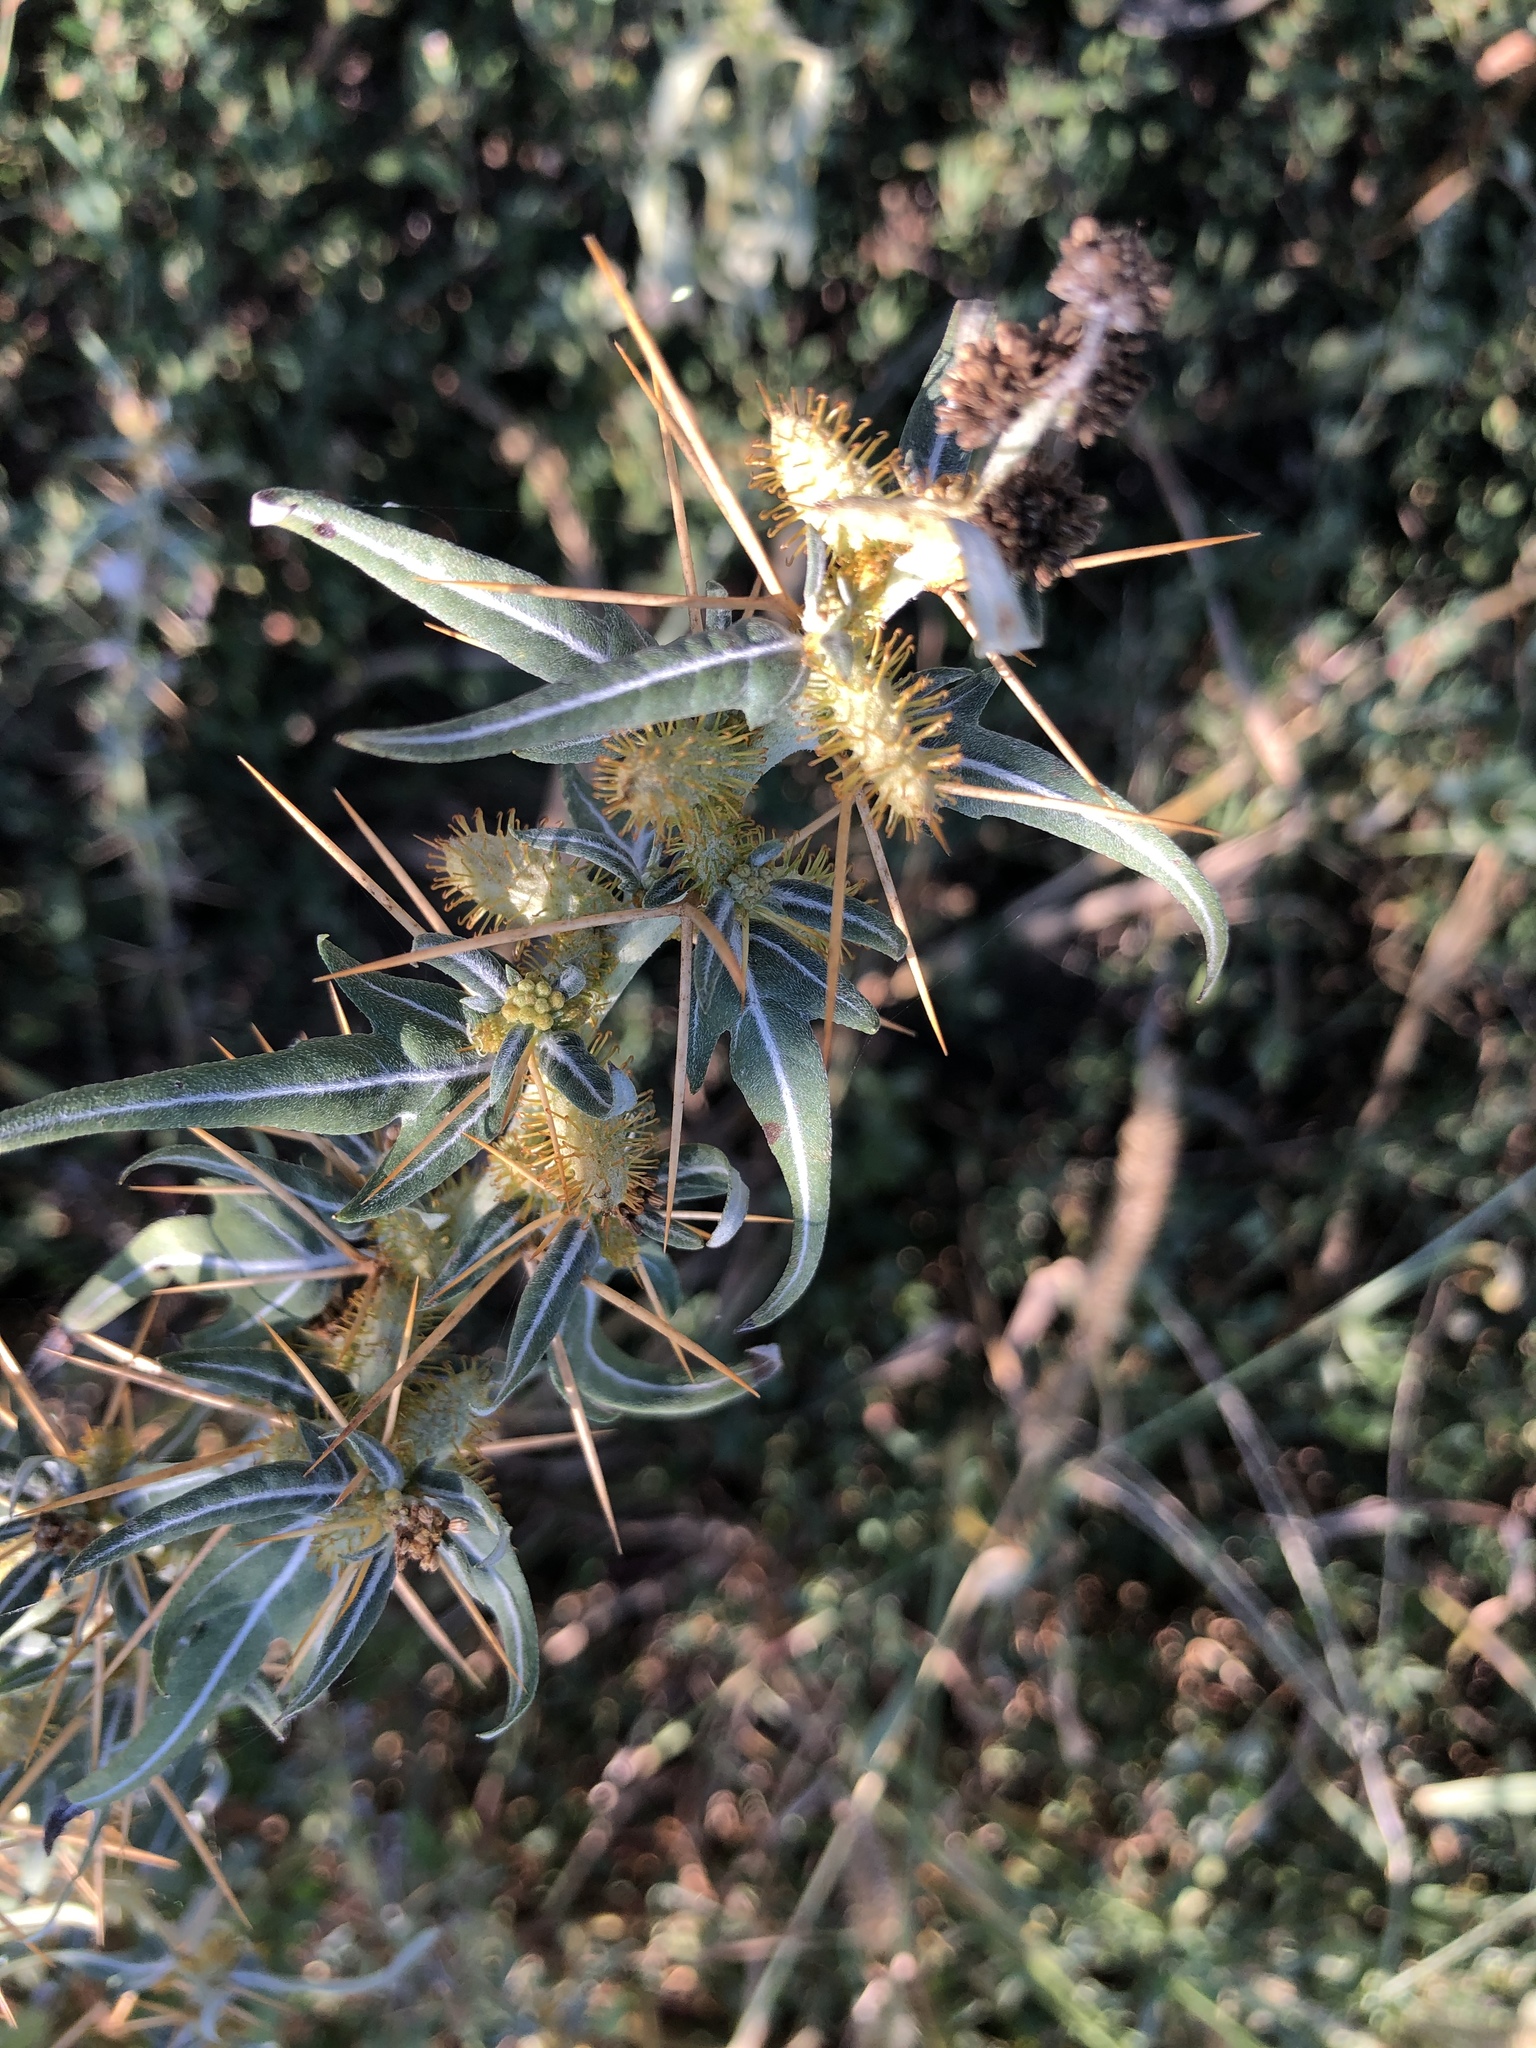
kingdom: Plantae
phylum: Tracheophyta
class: Magnoliopsida
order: Asterales
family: Asteraceae
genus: Xanthium
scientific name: Xanthium spinosum
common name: Spiny cocklebur
